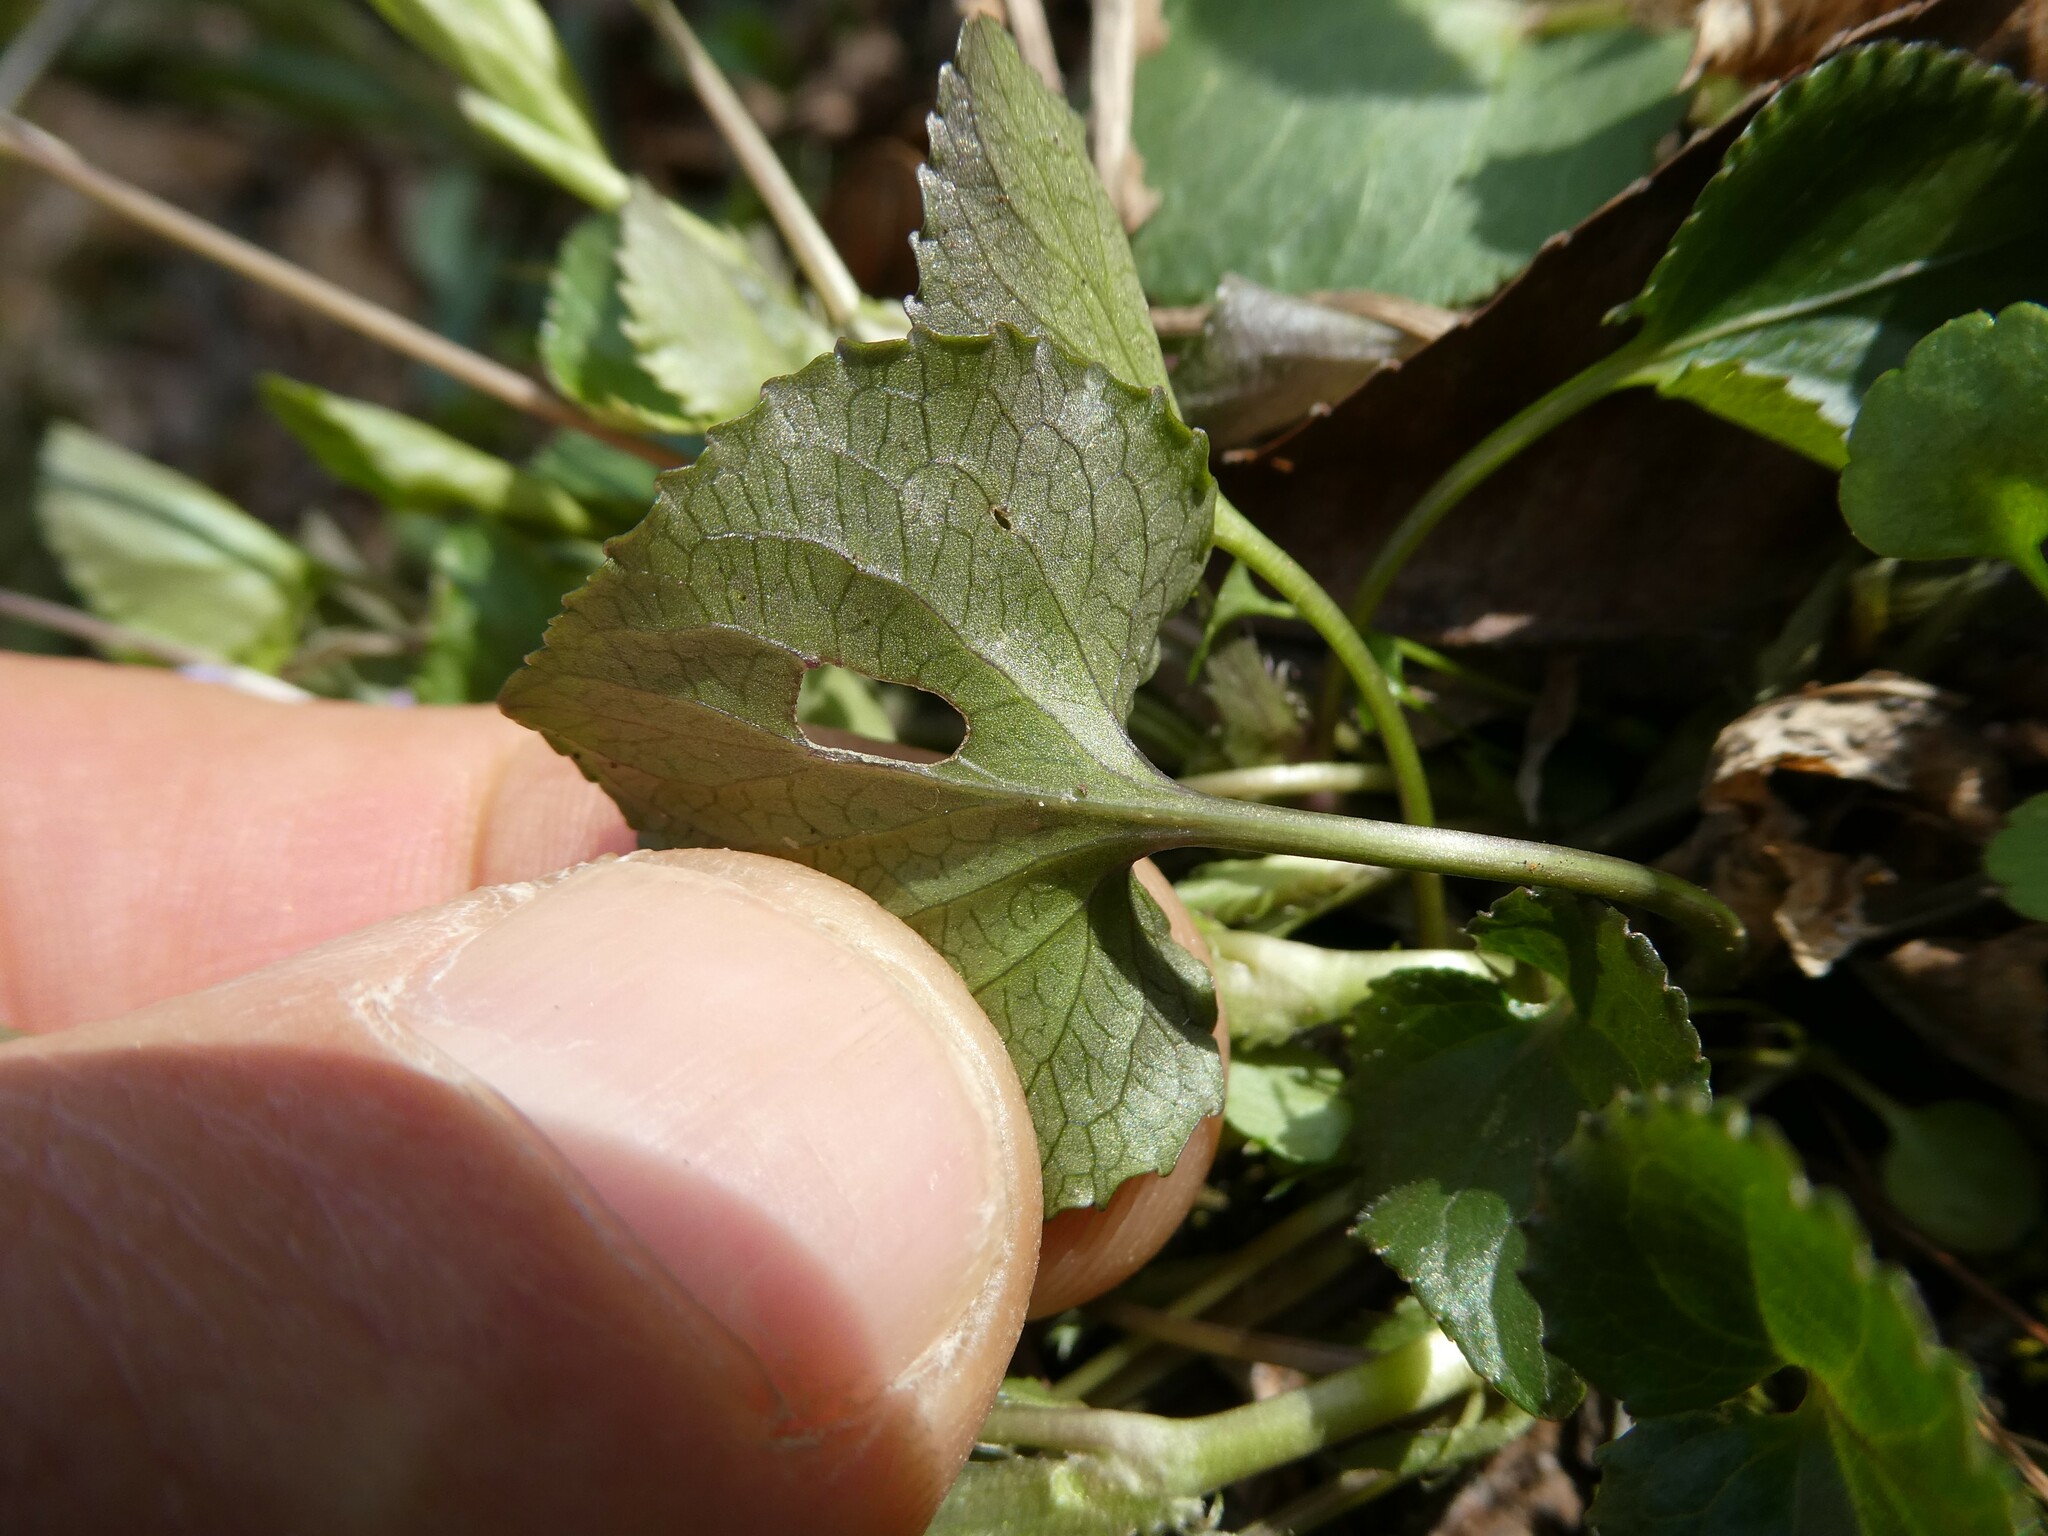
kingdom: Plantae
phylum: Tracheophyta
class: Magnoliopsida
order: Malpighiales
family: Violaceae
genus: Viola
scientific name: Viola rostrata
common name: Long-spur violet
